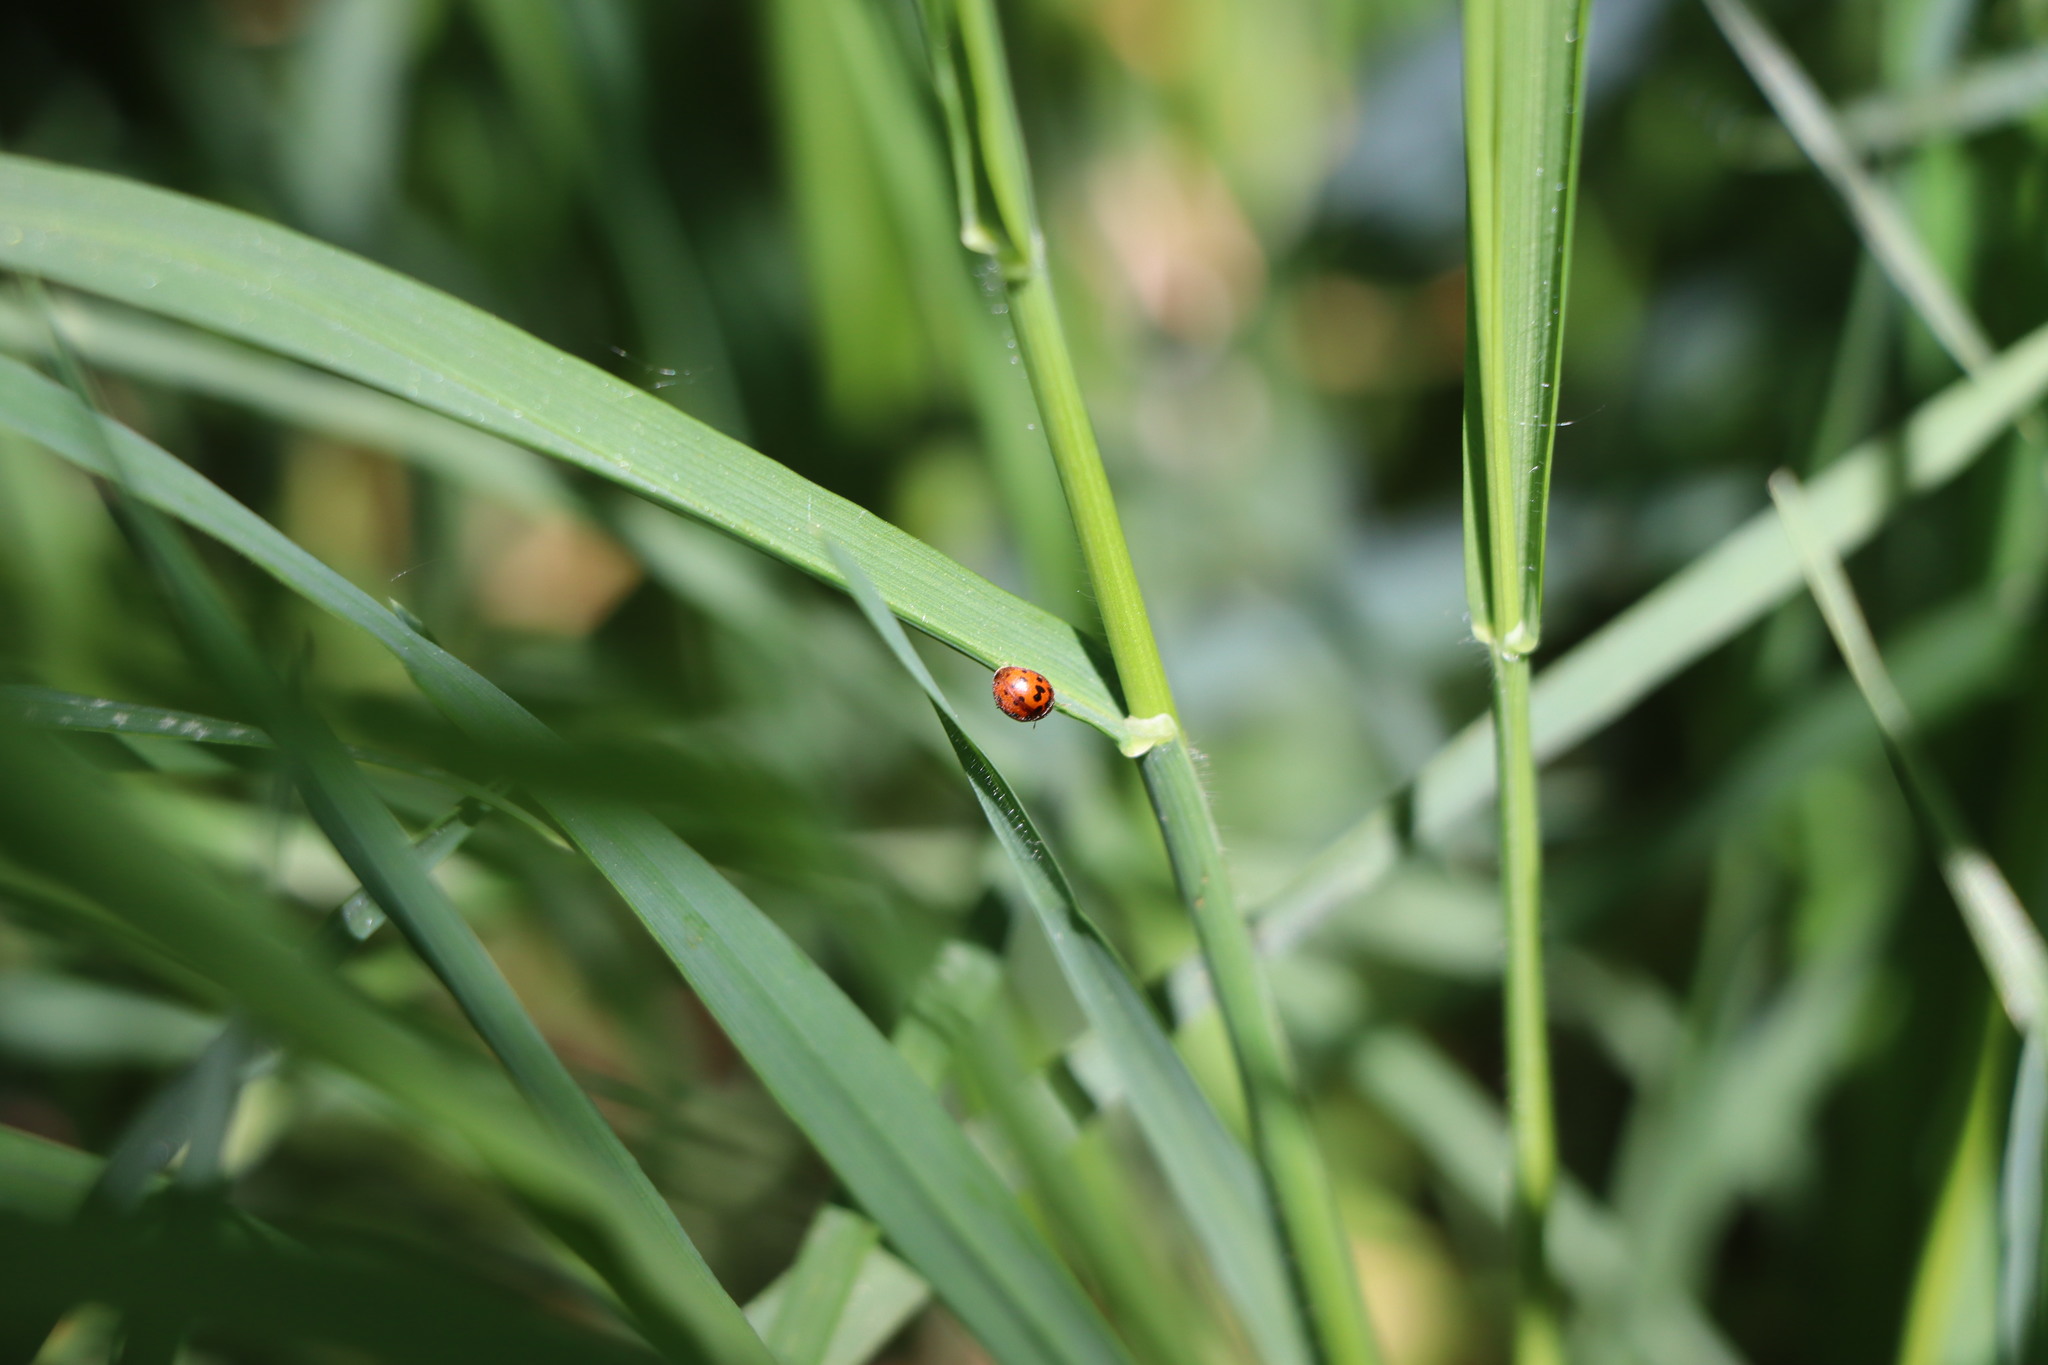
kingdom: Animalia
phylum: Arthropoda
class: Insecta
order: Coleoptera
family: Coccinellidae
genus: Subcoccinella
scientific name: Subcoccinella vigintiquatuorpunctata
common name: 24-spot ladybird
